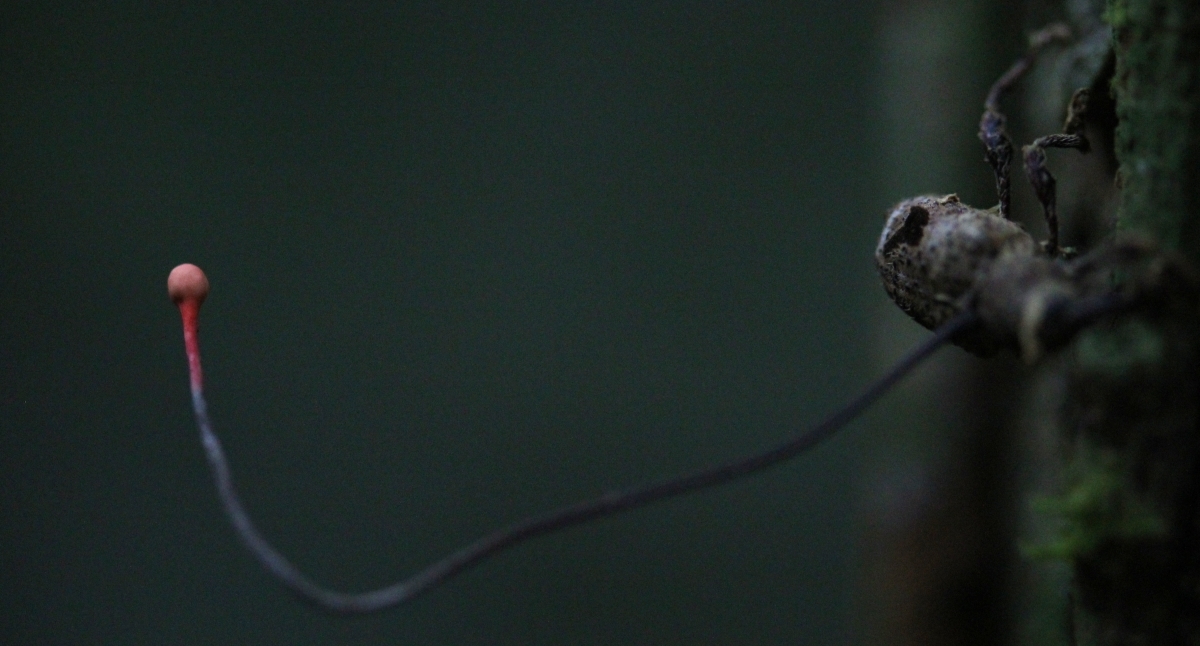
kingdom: Fungi
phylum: Ascomycota
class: Sordariomycetes
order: Hypocreales
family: Ophiocordycipitaceae
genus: Ophiocordyceps
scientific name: Ophiocordyceps curculionum
